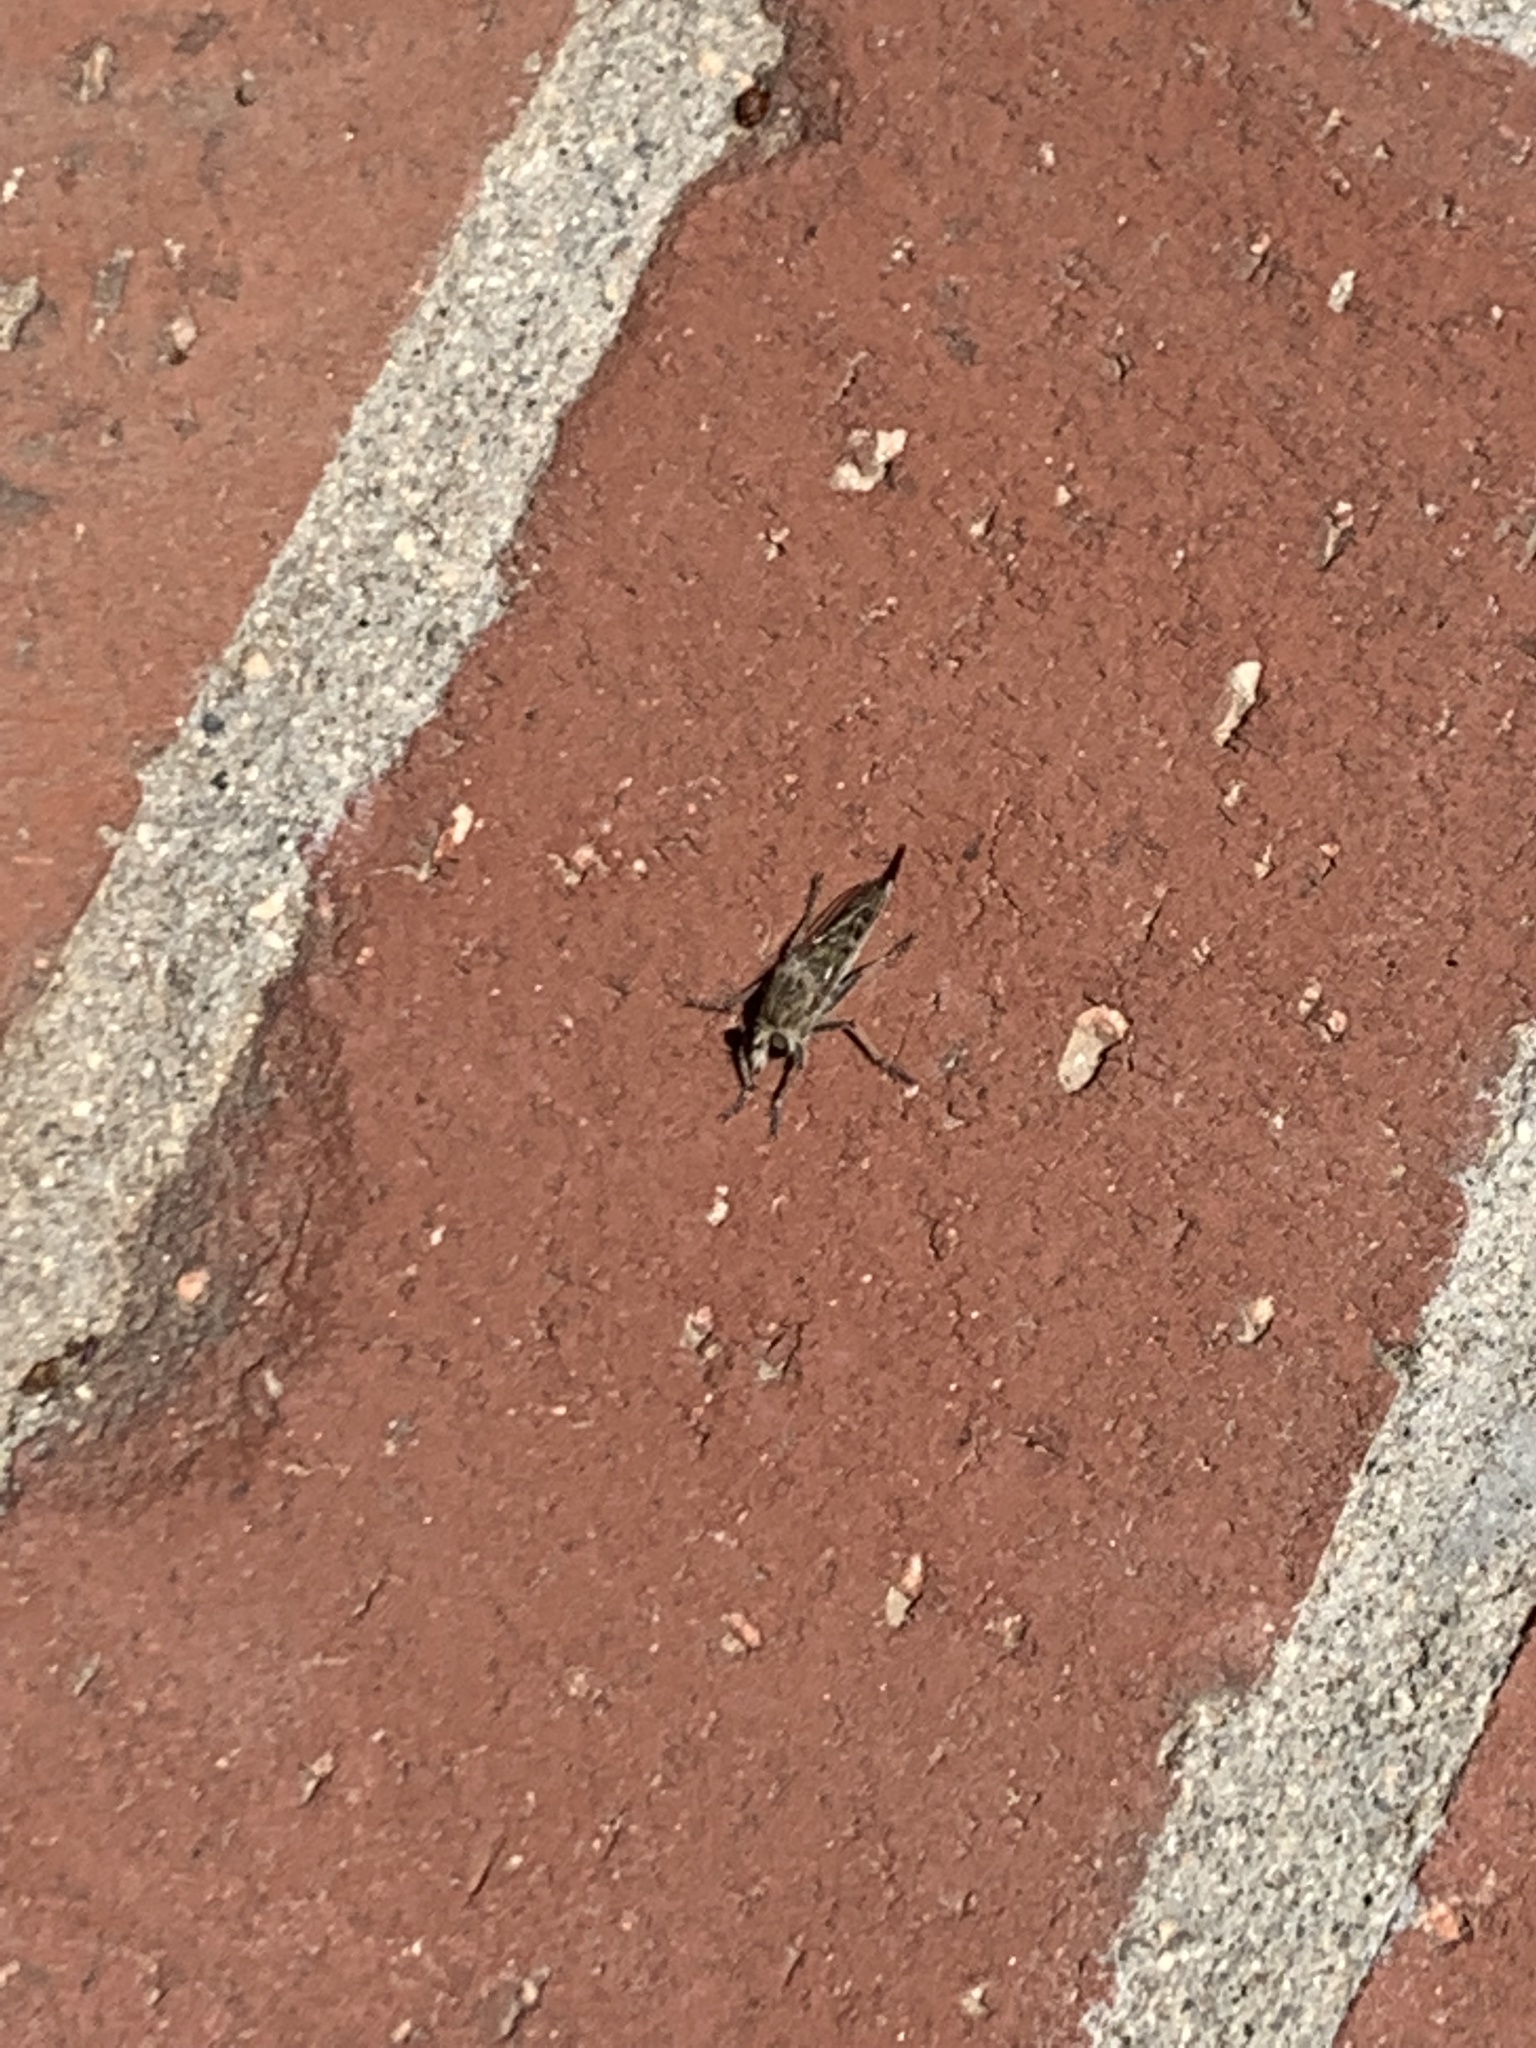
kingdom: Animalia
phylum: Arthropoda
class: Insecta
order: Diptera
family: Asilidae
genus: Efferia
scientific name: Efferia albibarbis
